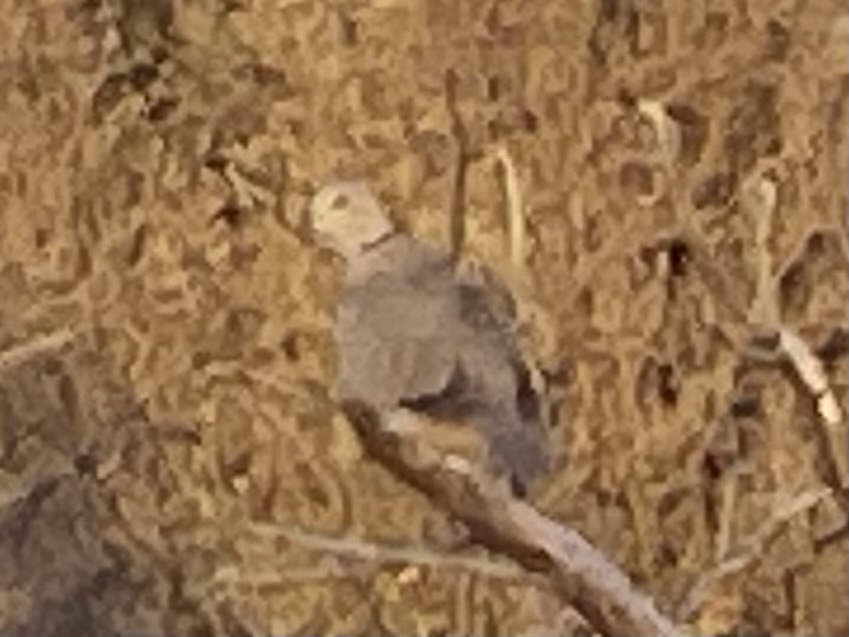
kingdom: Animalia
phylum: Chordata
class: Aves
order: Columbiformes
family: Columbidae
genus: Streptopelia
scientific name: Streptopelia decaocto
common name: Eurasian collared dove
